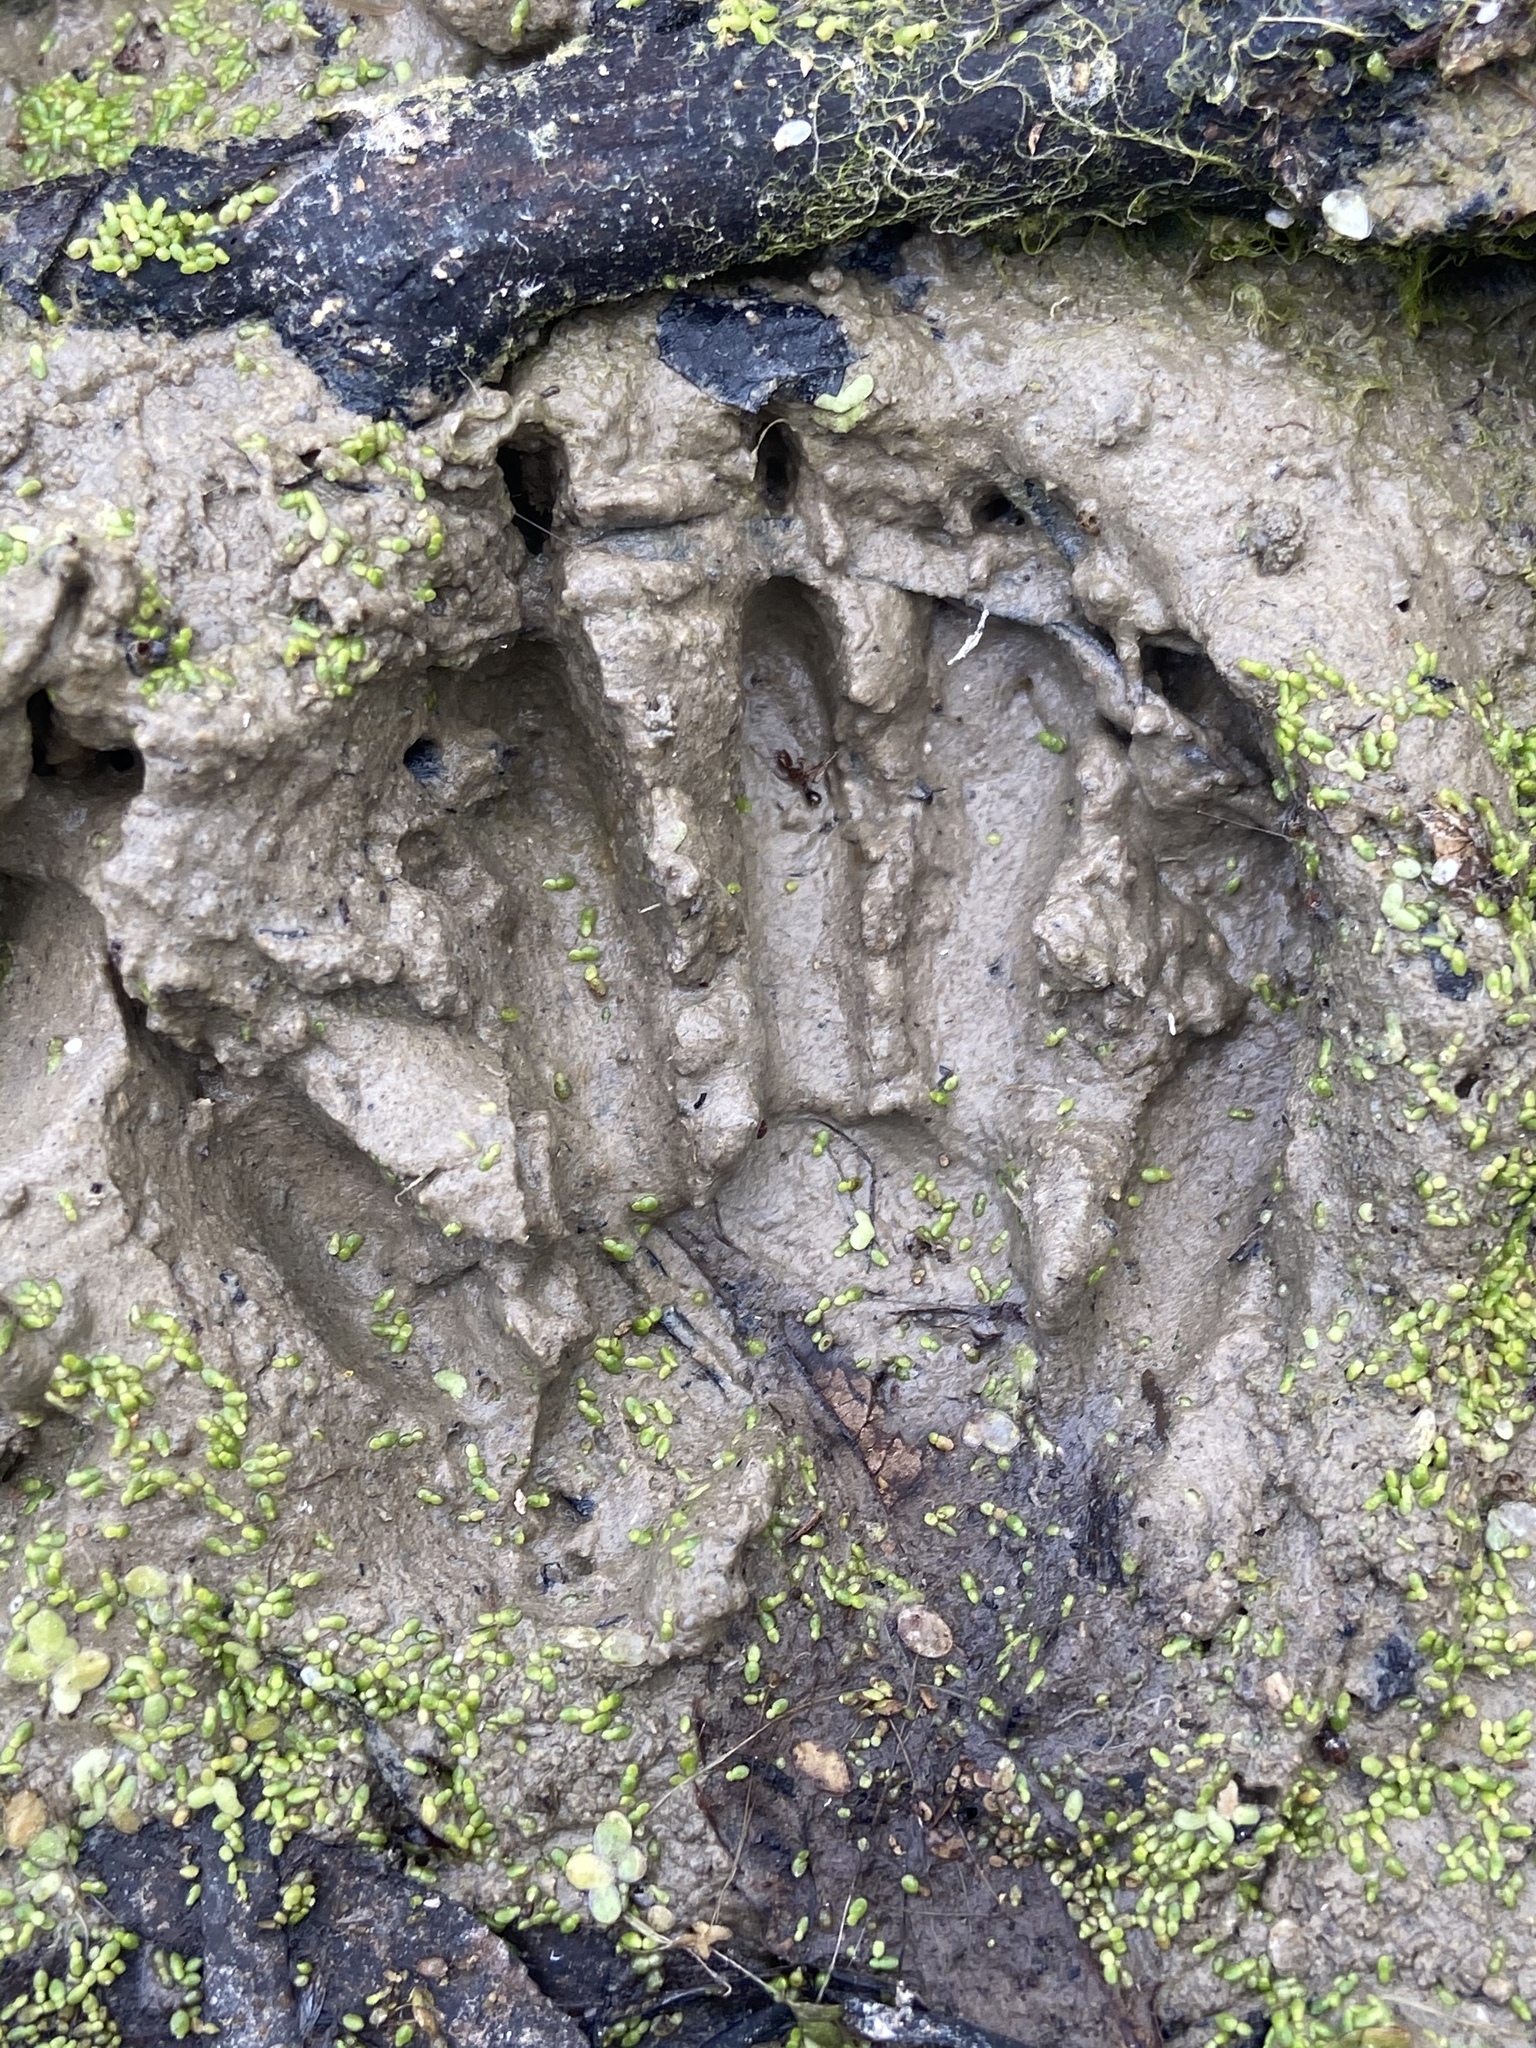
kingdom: Animalia
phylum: Chordata
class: Mammalia
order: Carnivora
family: Procyonidae
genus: Procyon
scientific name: Procyon lotor
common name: Raccoon
